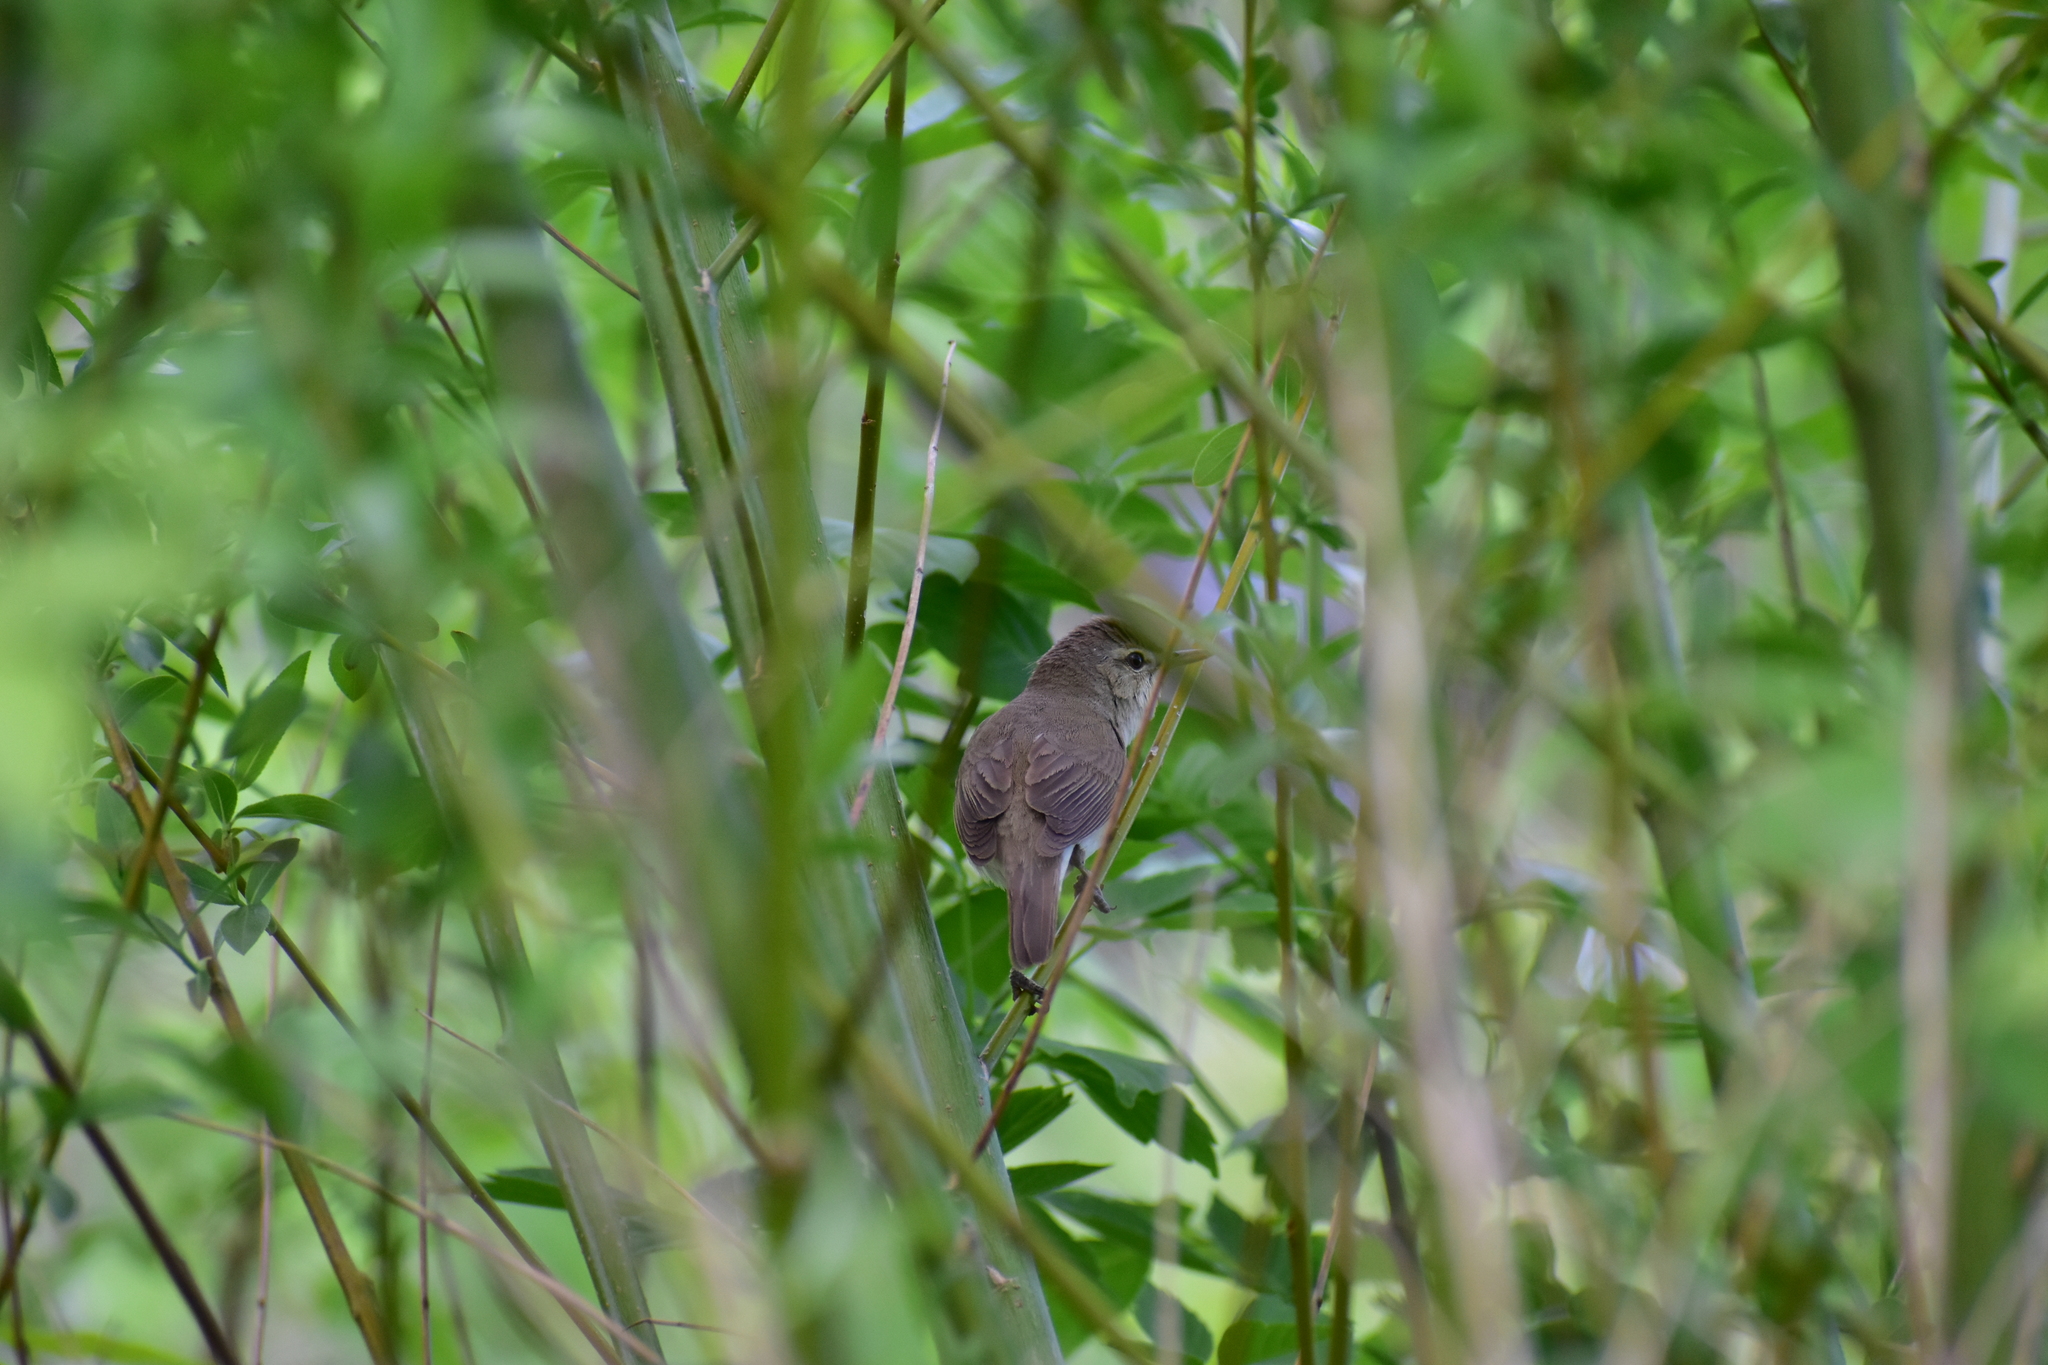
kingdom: Animalia
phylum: Chordata
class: Aves
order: Passeriformes
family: Acrocephalidae
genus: Acrocephalus
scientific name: Acrocephalus dumetorum
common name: Blyth's reed warbler
